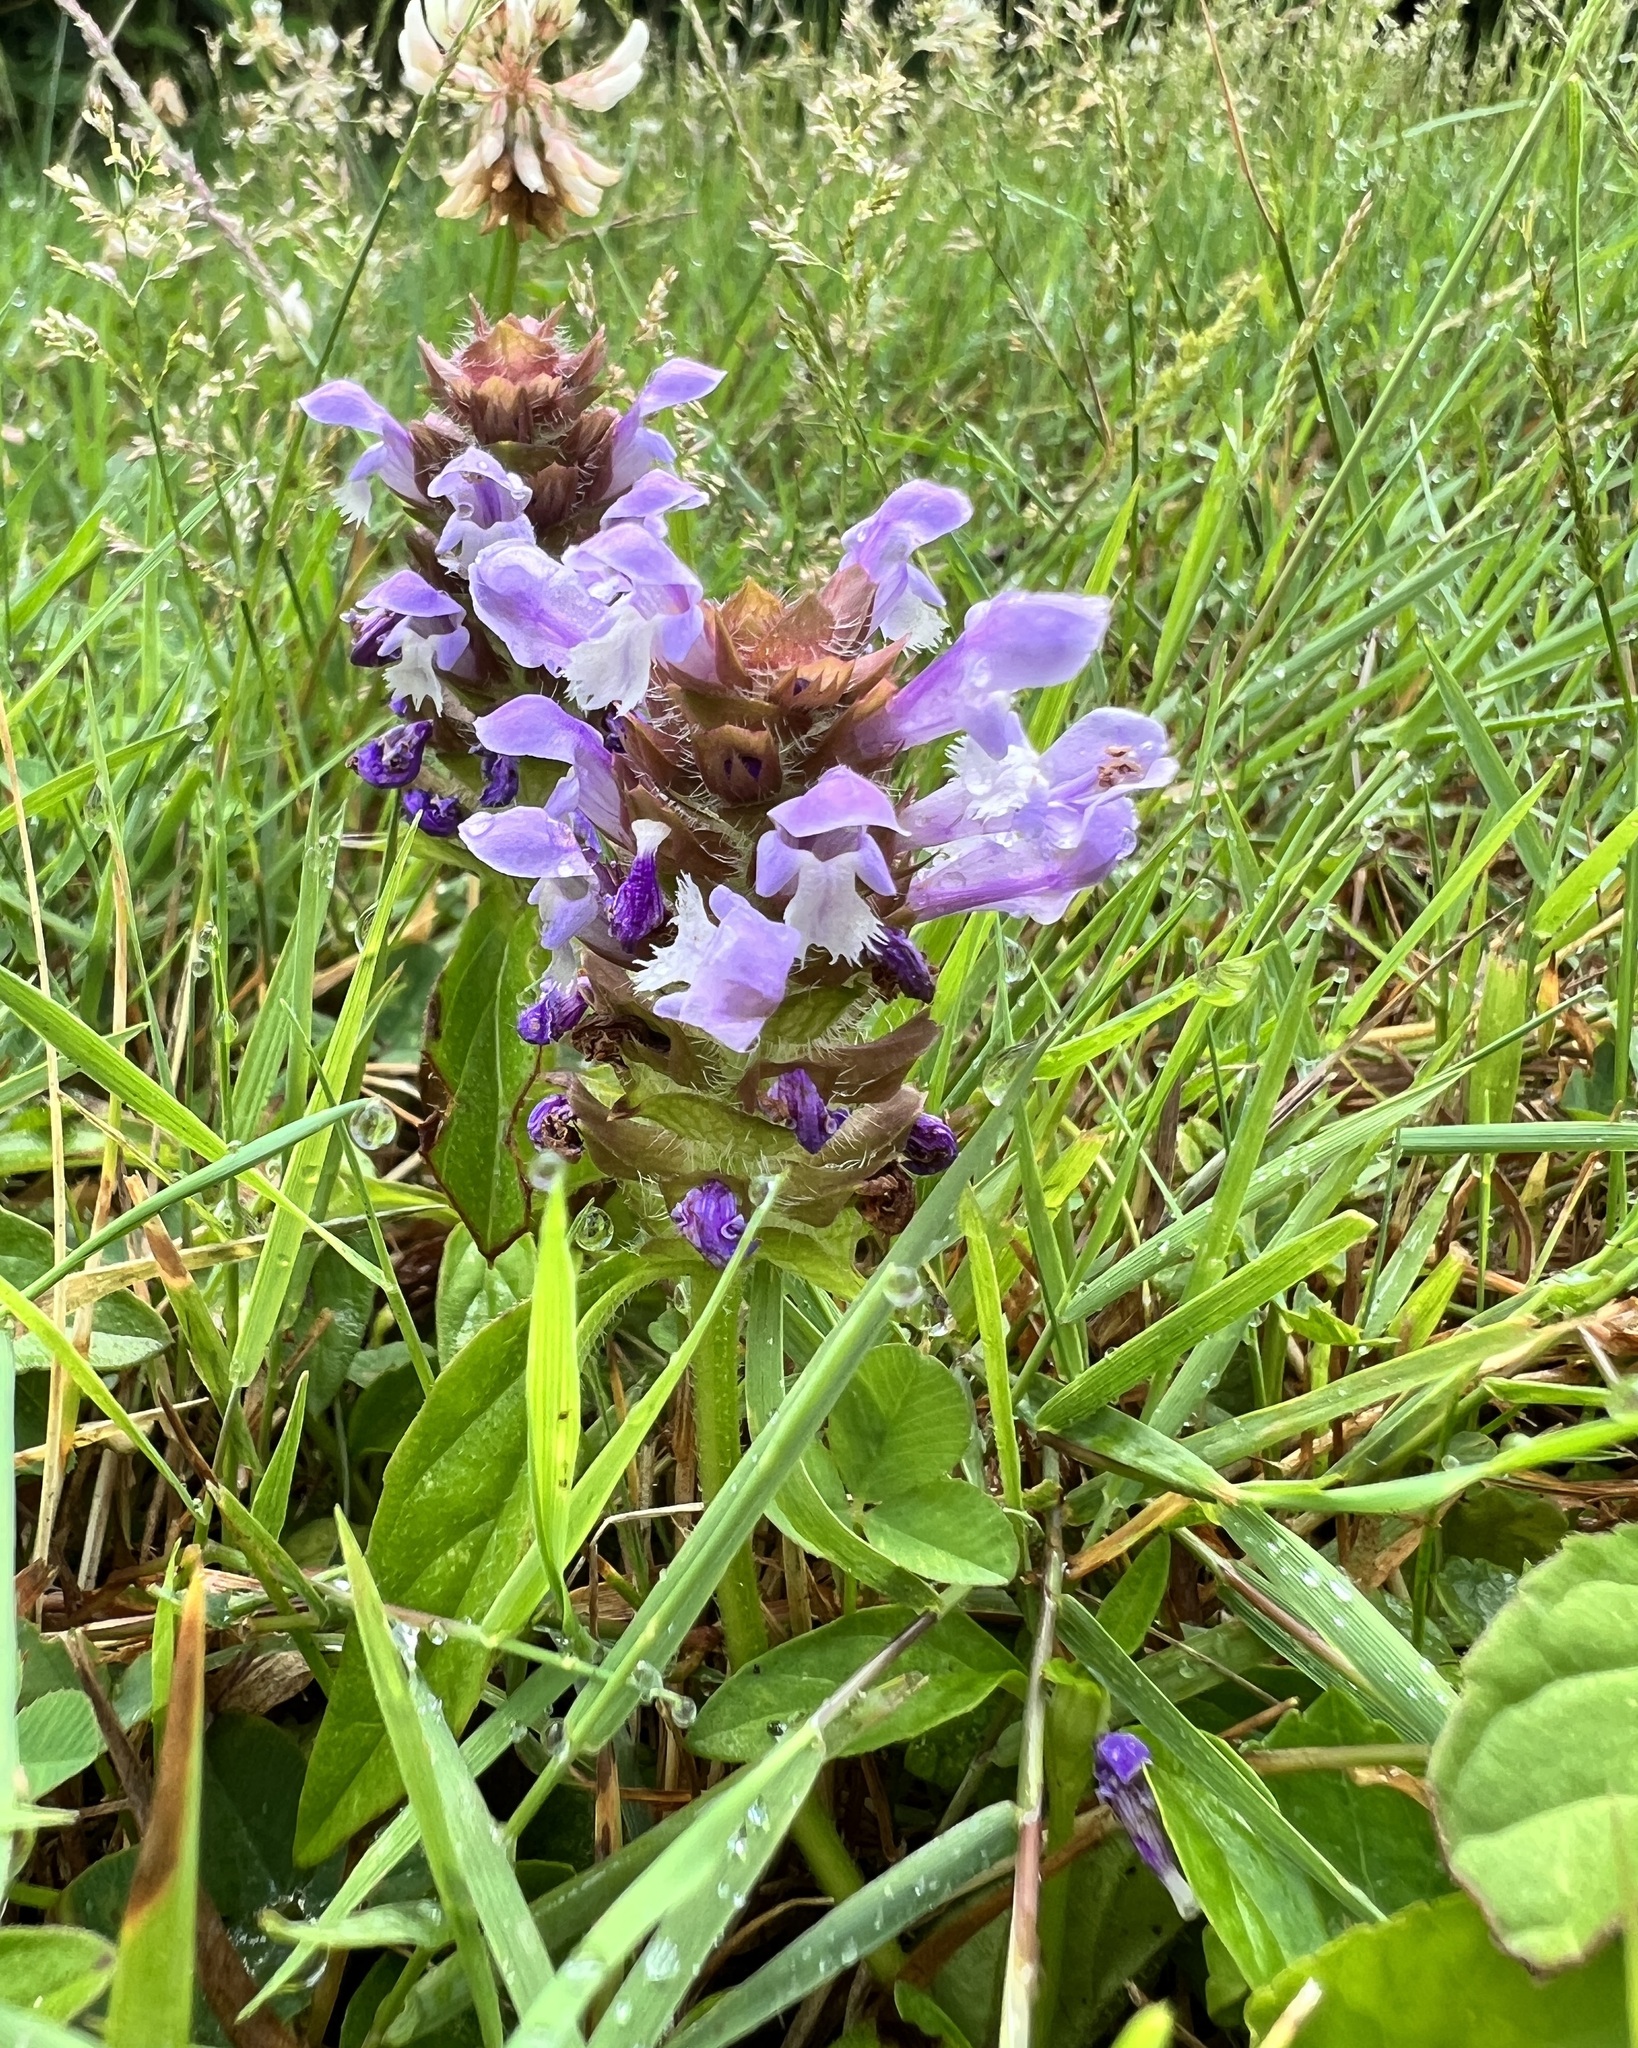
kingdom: Plantae
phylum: Tracheophyta
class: Magnoliopsida
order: Lamiales
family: Lamiaceae
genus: Prunella
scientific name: Prunella vulgaris
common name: Heal-all
